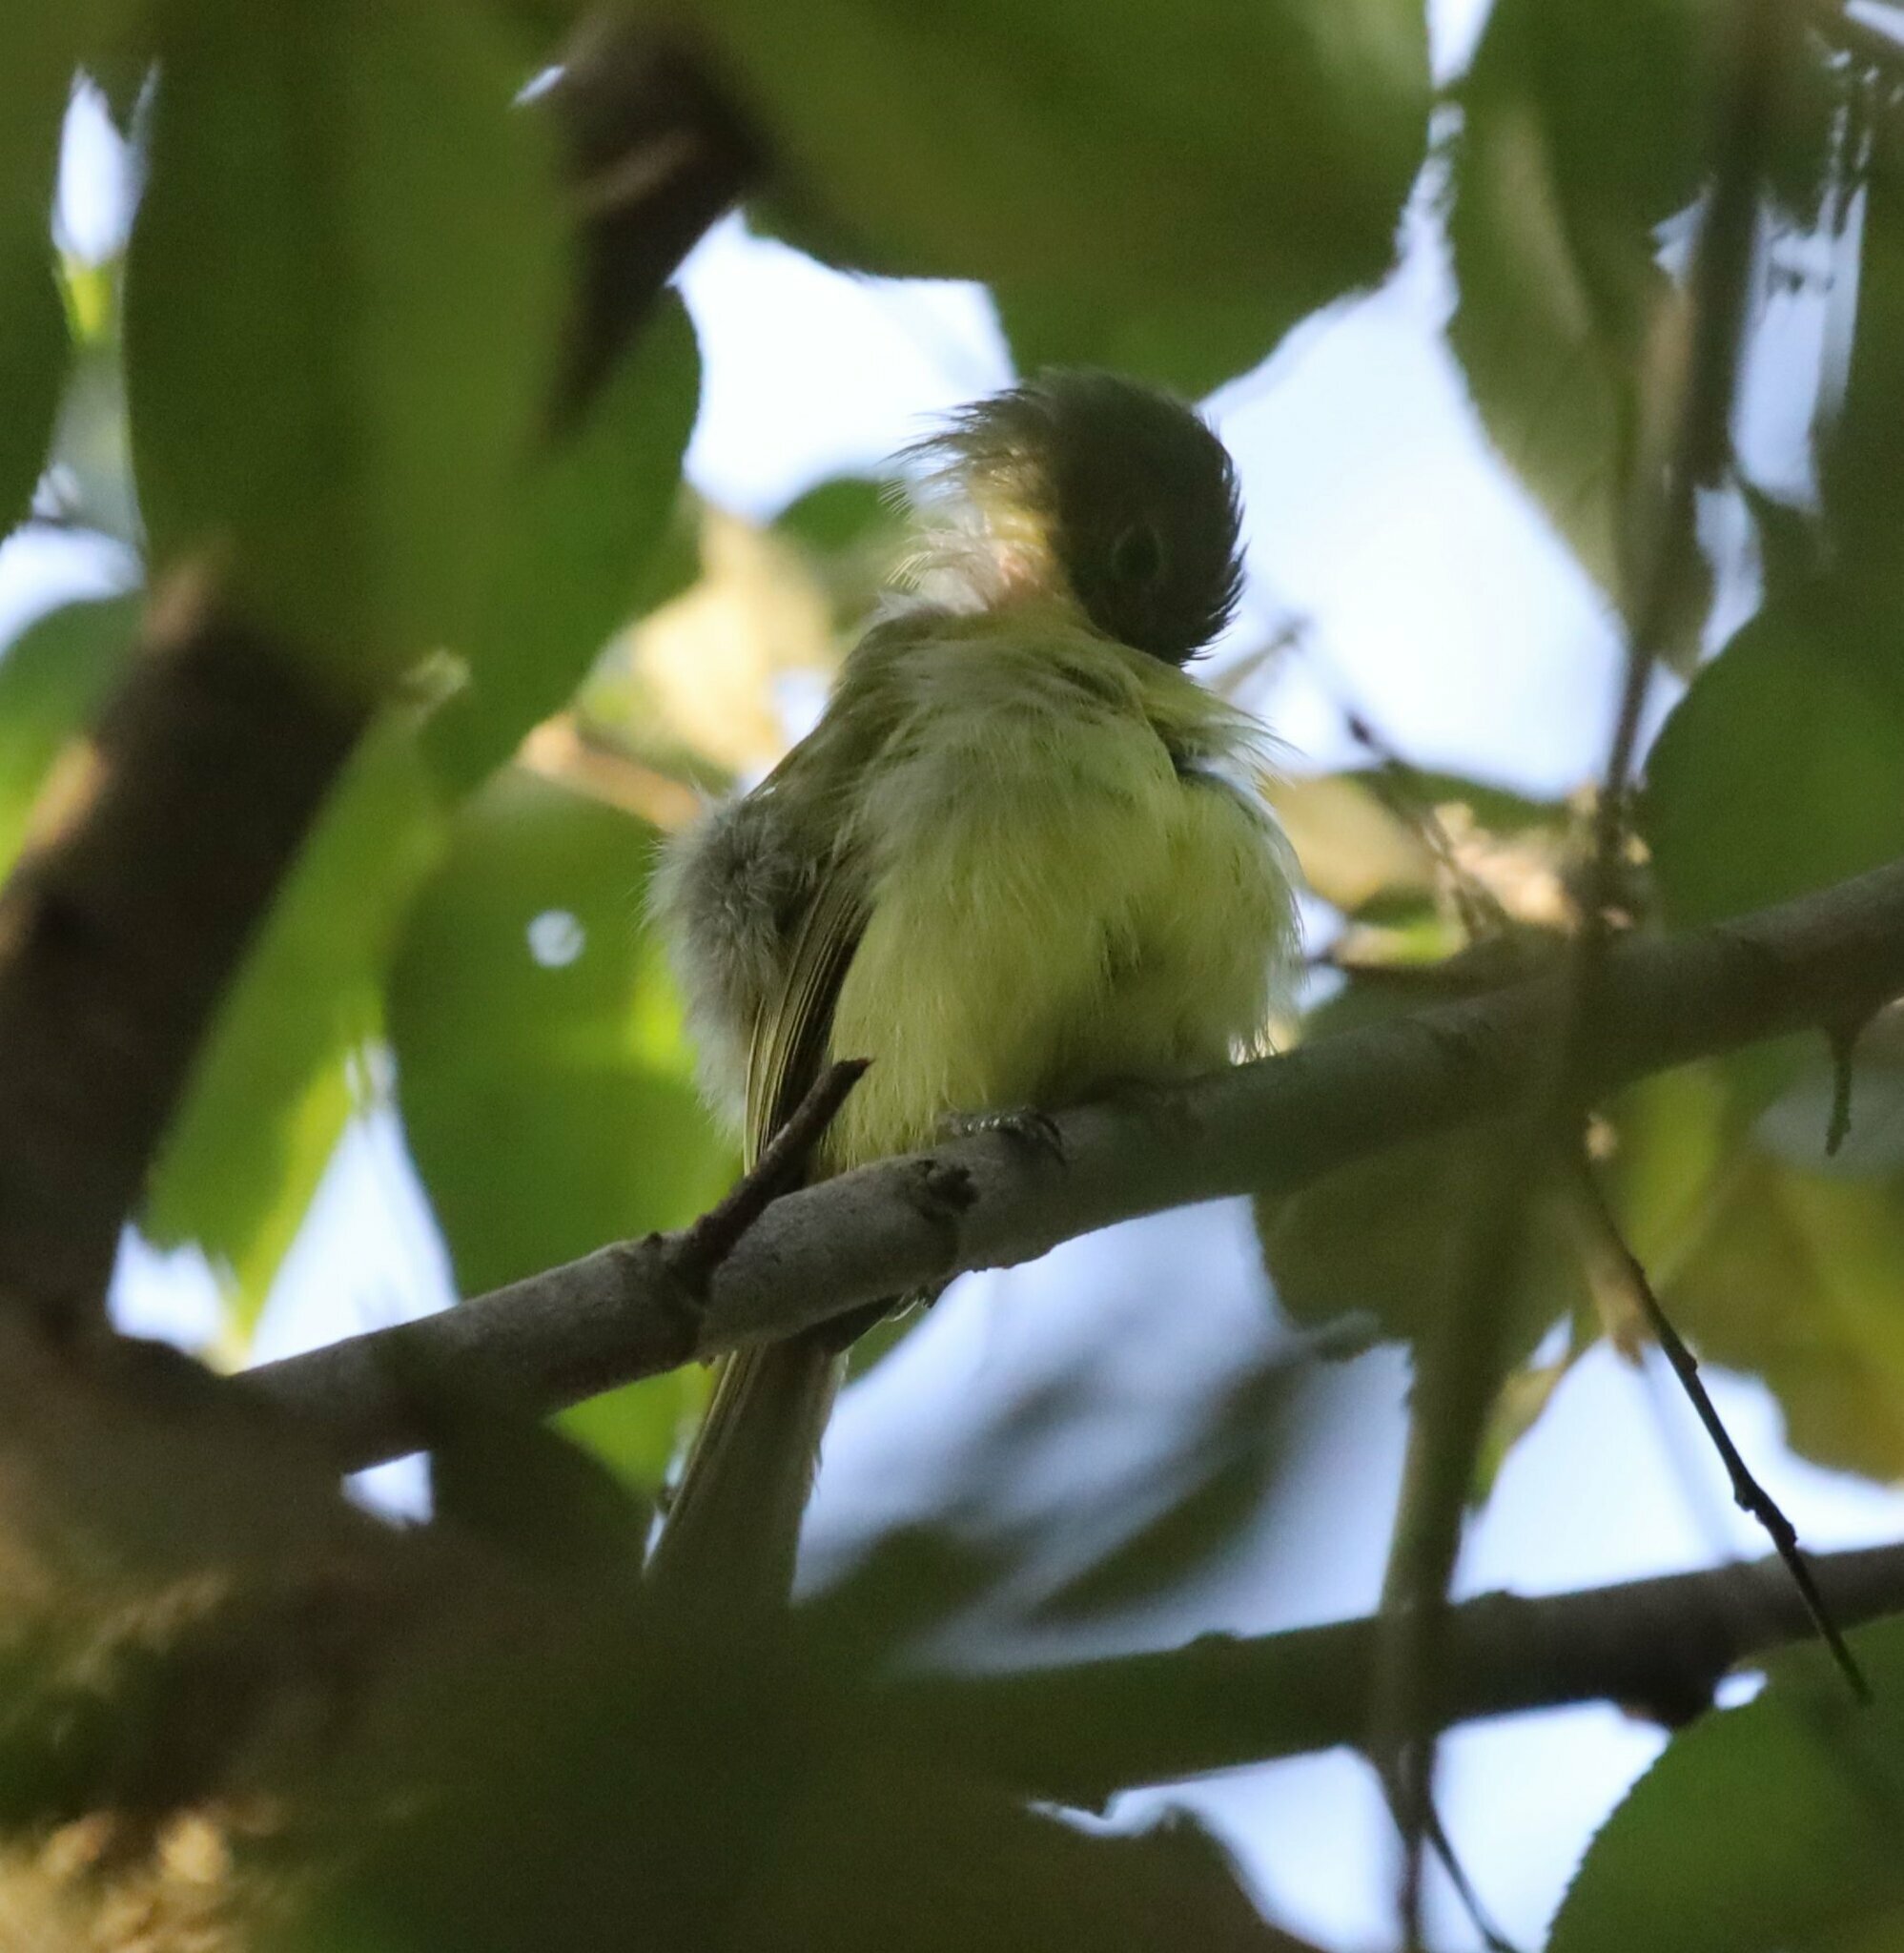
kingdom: Animalia
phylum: Chordata
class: Aves
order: Passeriformes
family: Tyrannidae
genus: Tolmomyias
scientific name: Tolmomyias sulphurescens
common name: Yellow-olive flycatcher
